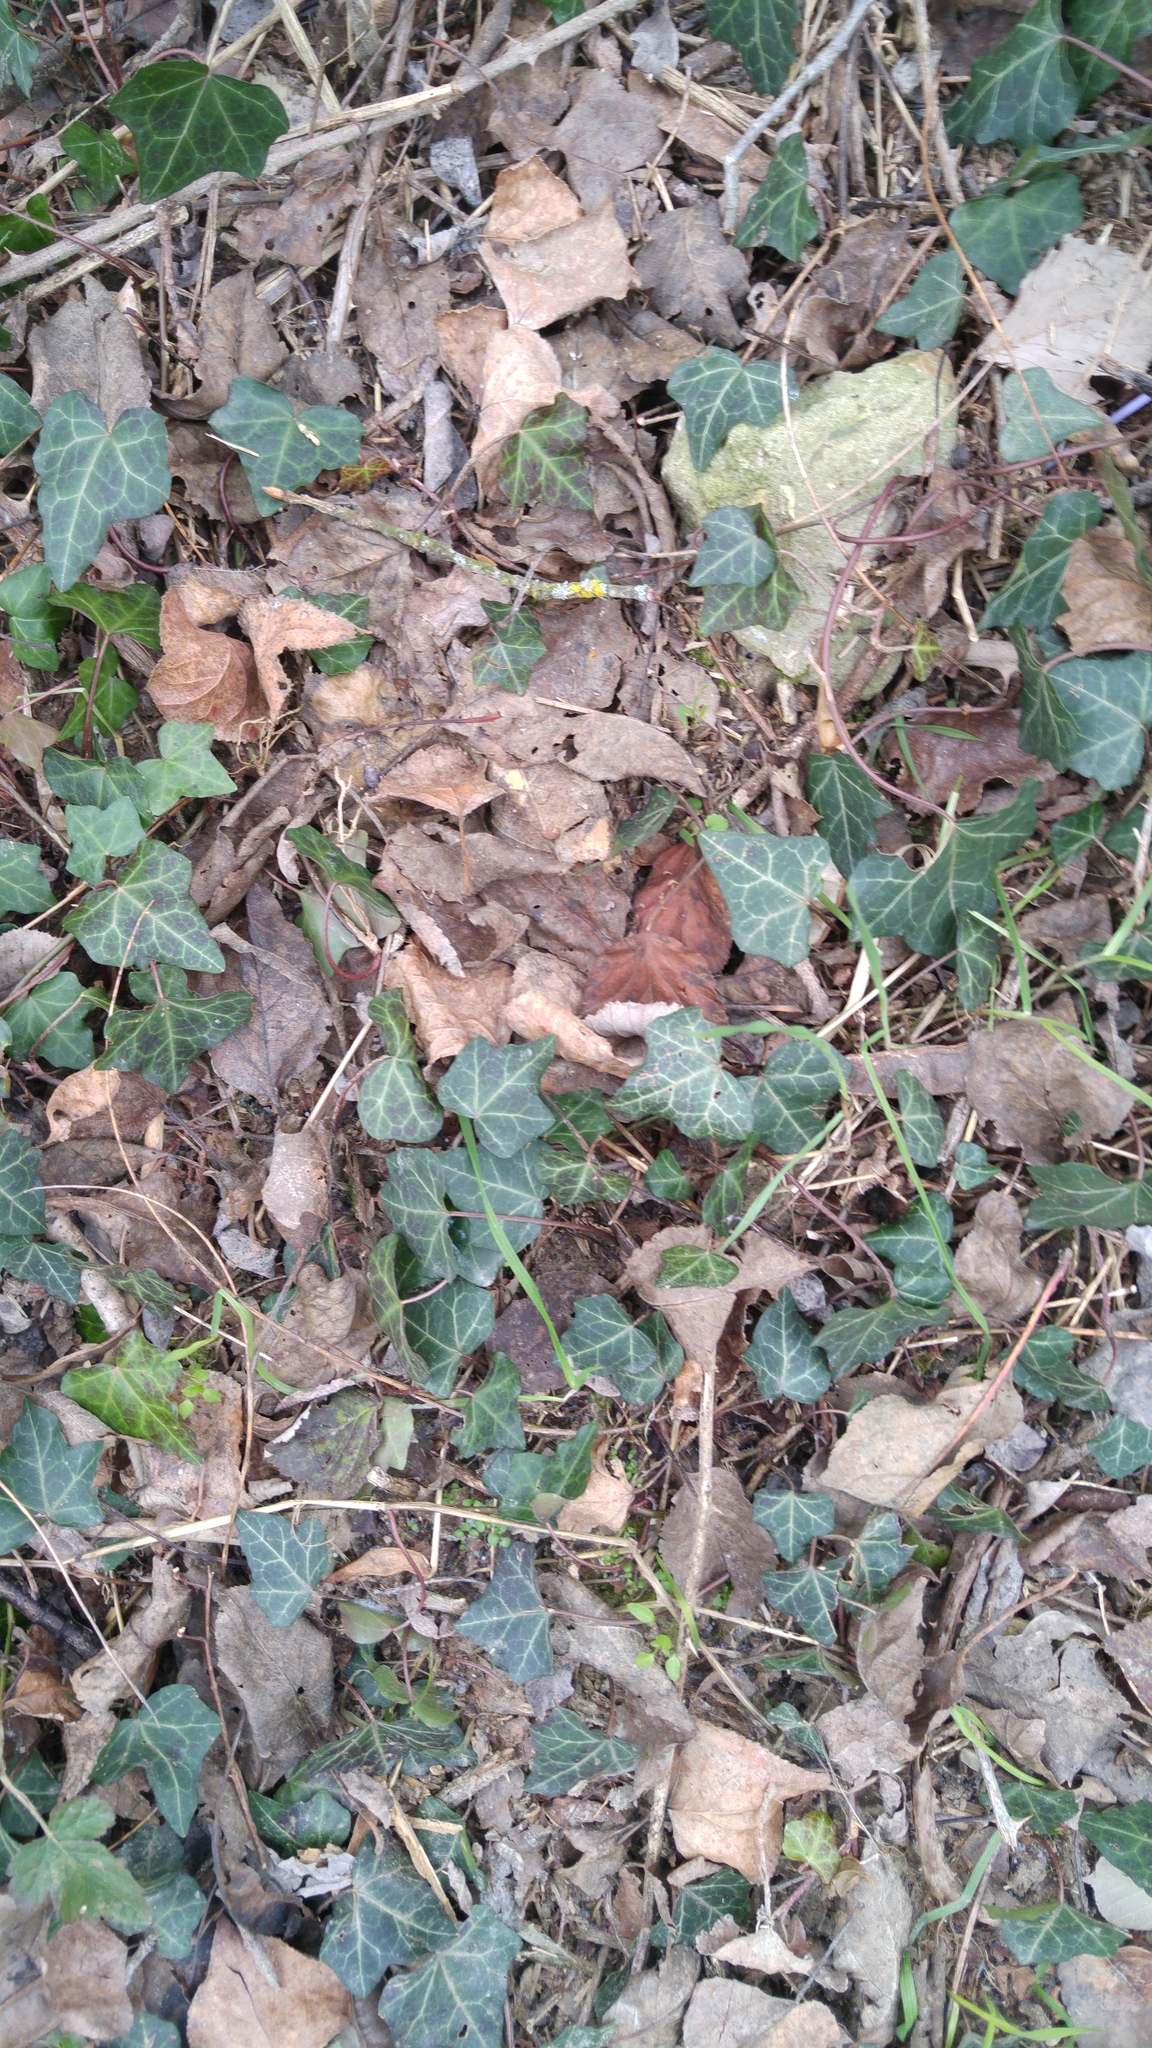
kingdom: Plantae
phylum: Tracheophyta
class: Magnoliopsida
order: Apiales
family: Araliaceae
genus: Hedera
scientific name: Hedera helix
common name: Ivy
